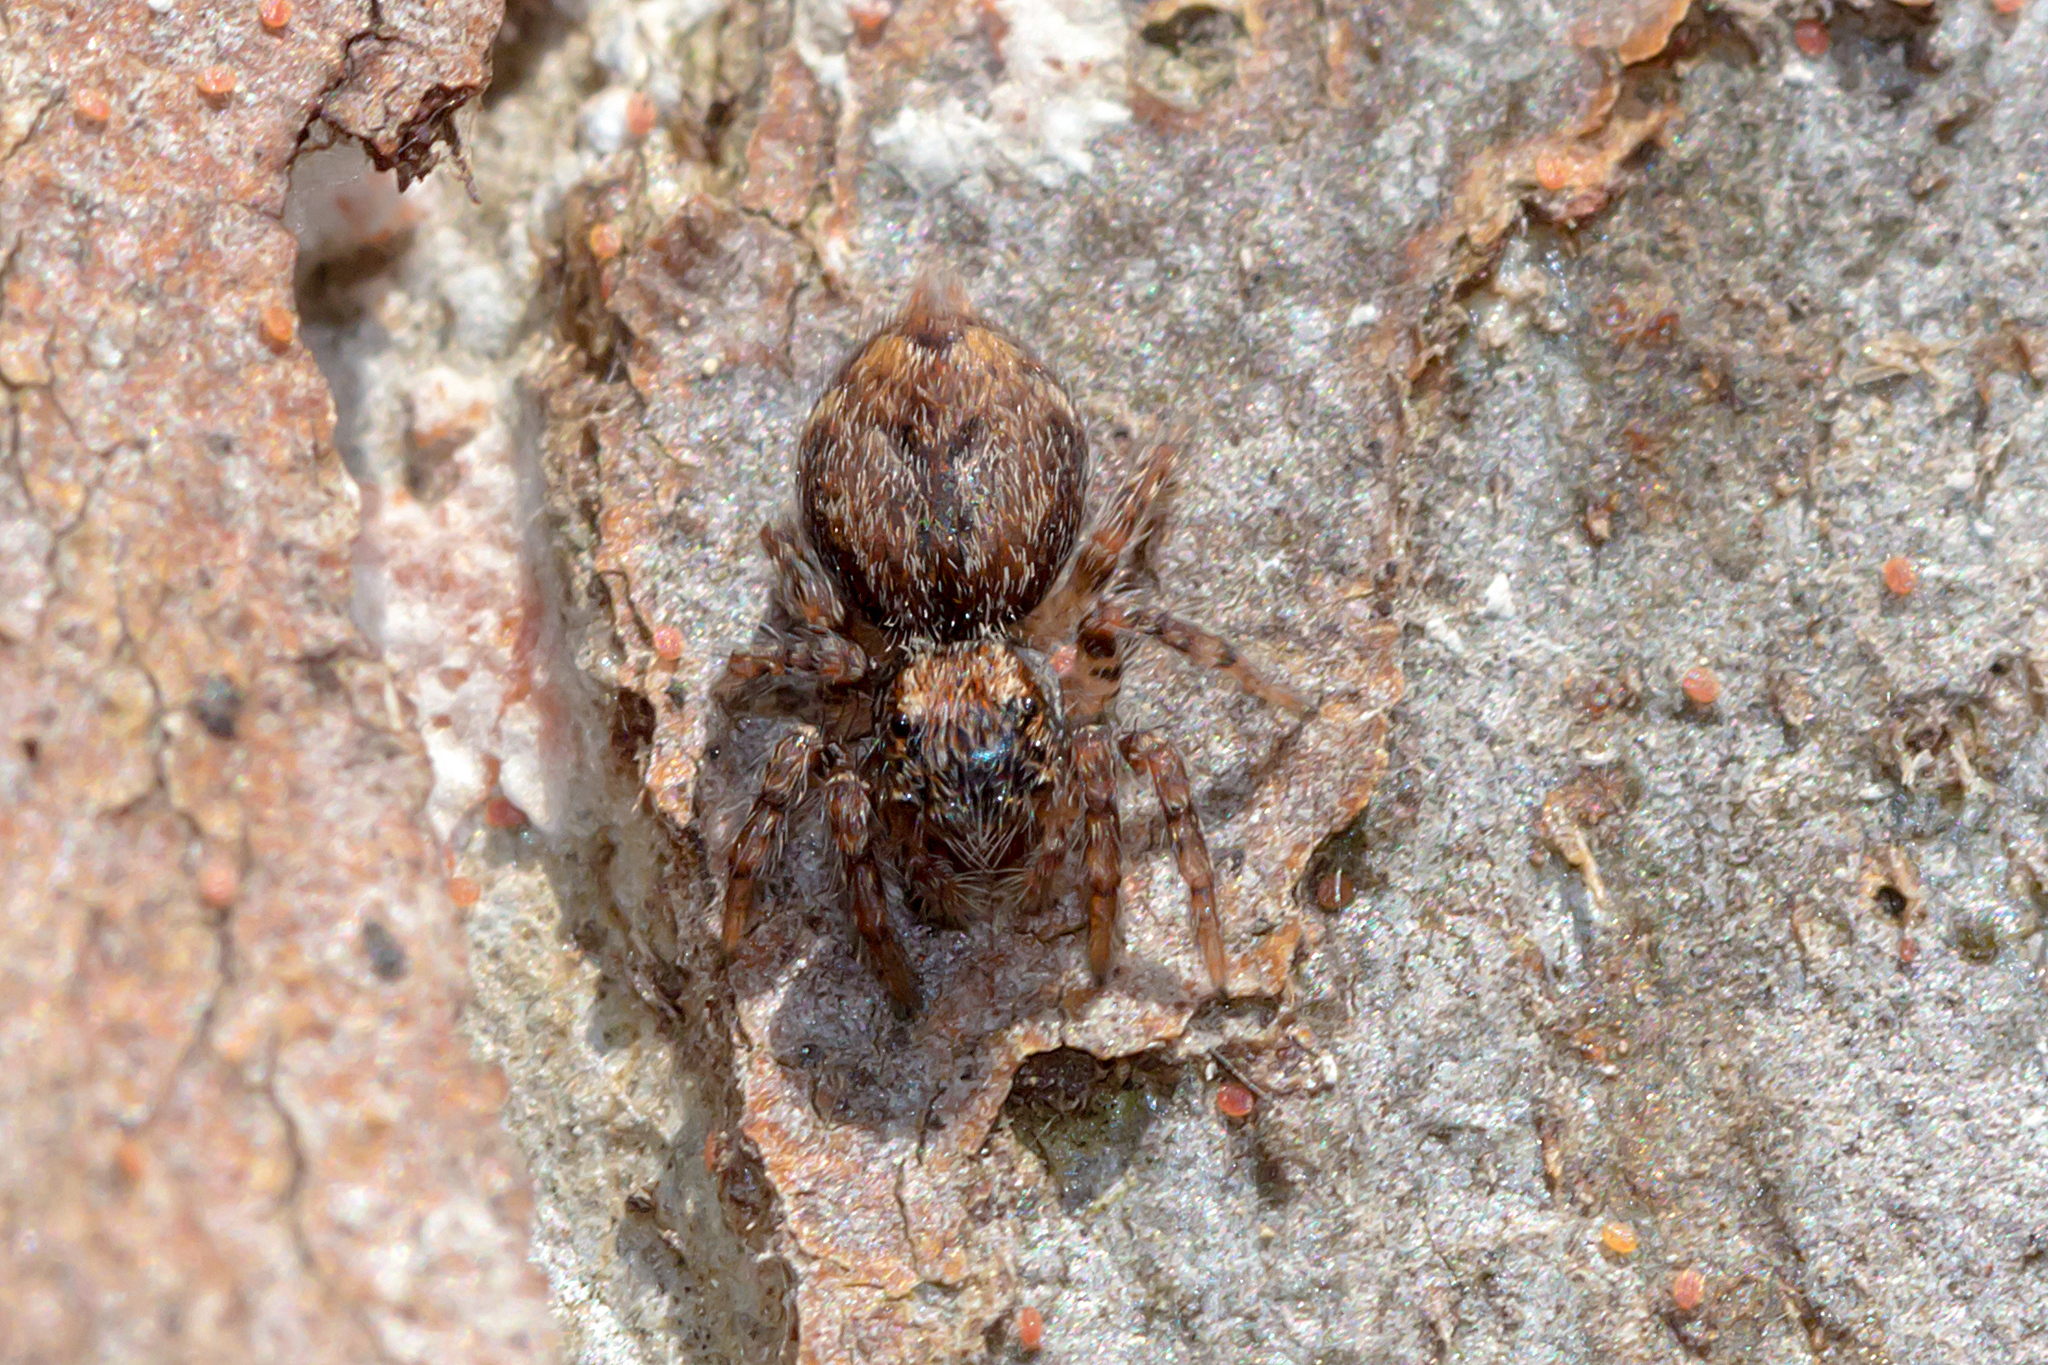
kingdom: Animalia
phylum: Arthropoda
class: Arachnida
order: Araneae
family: Salticidae
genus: Servaea
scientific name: Servaea incana
